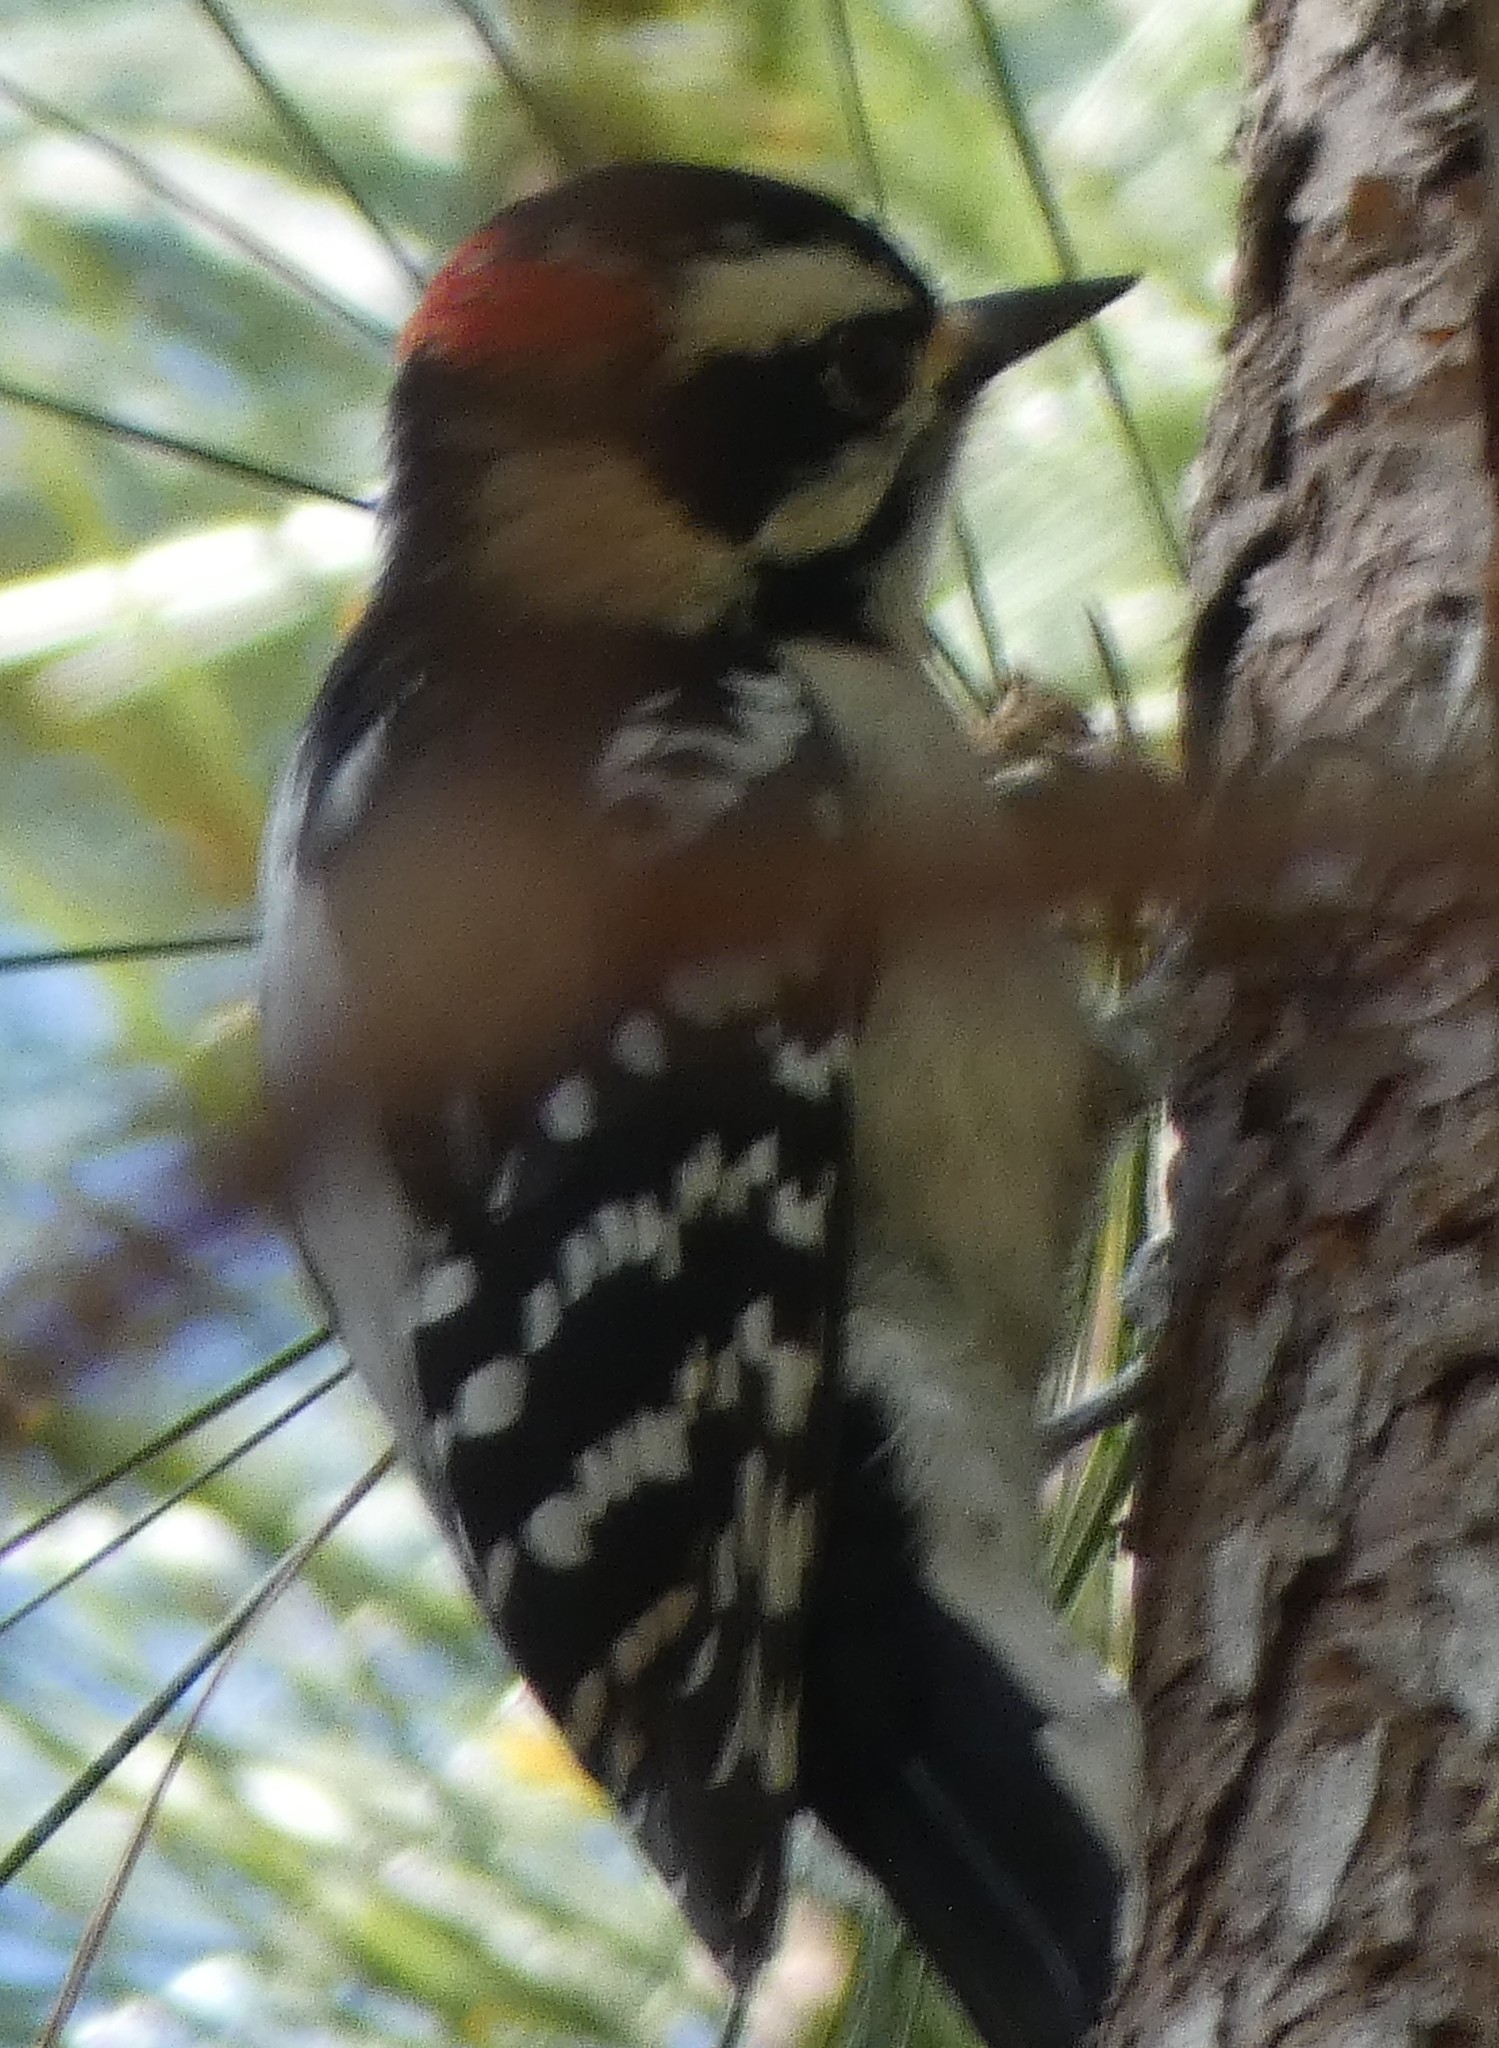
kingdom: Animalia
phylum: Chordata
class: Aves
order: Piciformes
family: Picidae
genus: Dryobates
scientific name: Dryobates pubescens
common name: Downy woodpecker
